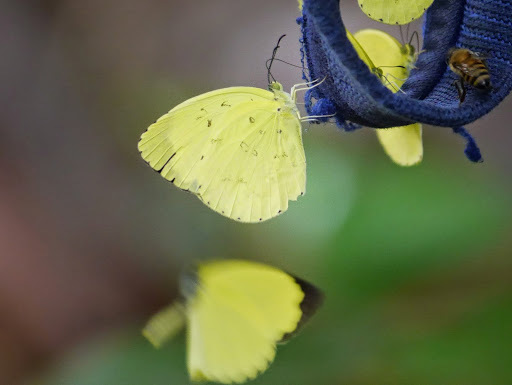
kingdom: Animalia
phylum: Arthropoda
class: Insecta
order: Lepidoptera
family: Pieridae
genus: Eurema
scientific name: Eurema senegalensis
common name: Forest grass yellow
